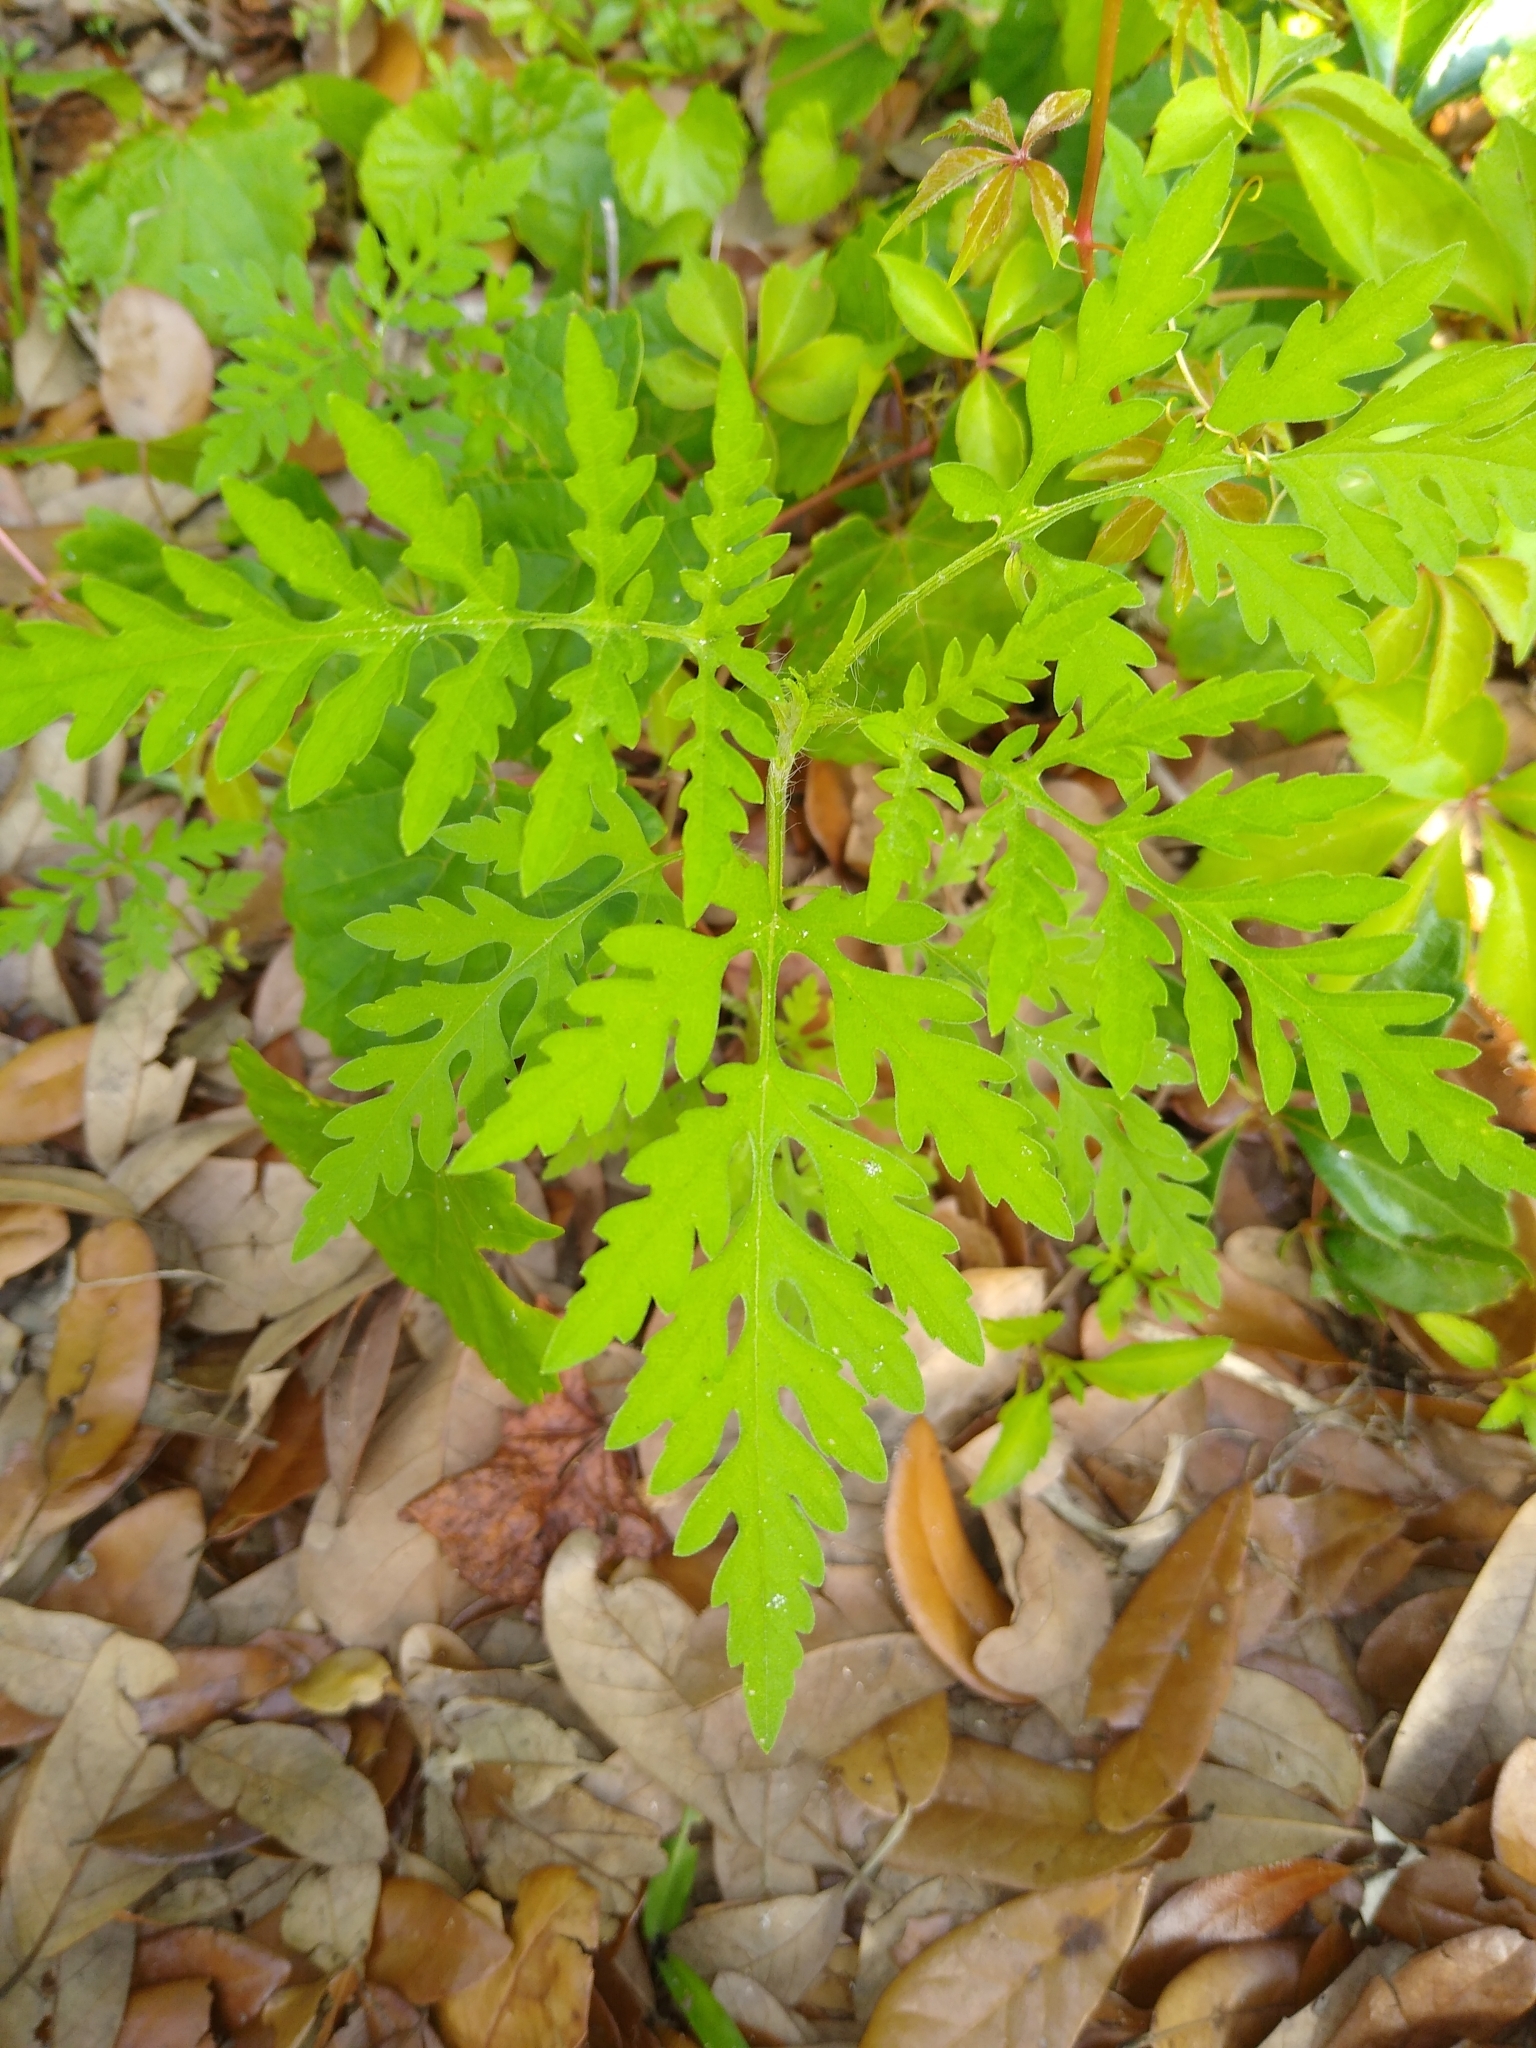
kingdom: Plantae
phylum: Tracheophyta
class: Magnoliopsida
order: Asterales
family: Asteraceae
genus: Ambrosia
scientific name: Ambrosia artemisiifolia
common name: Annual ragweed
